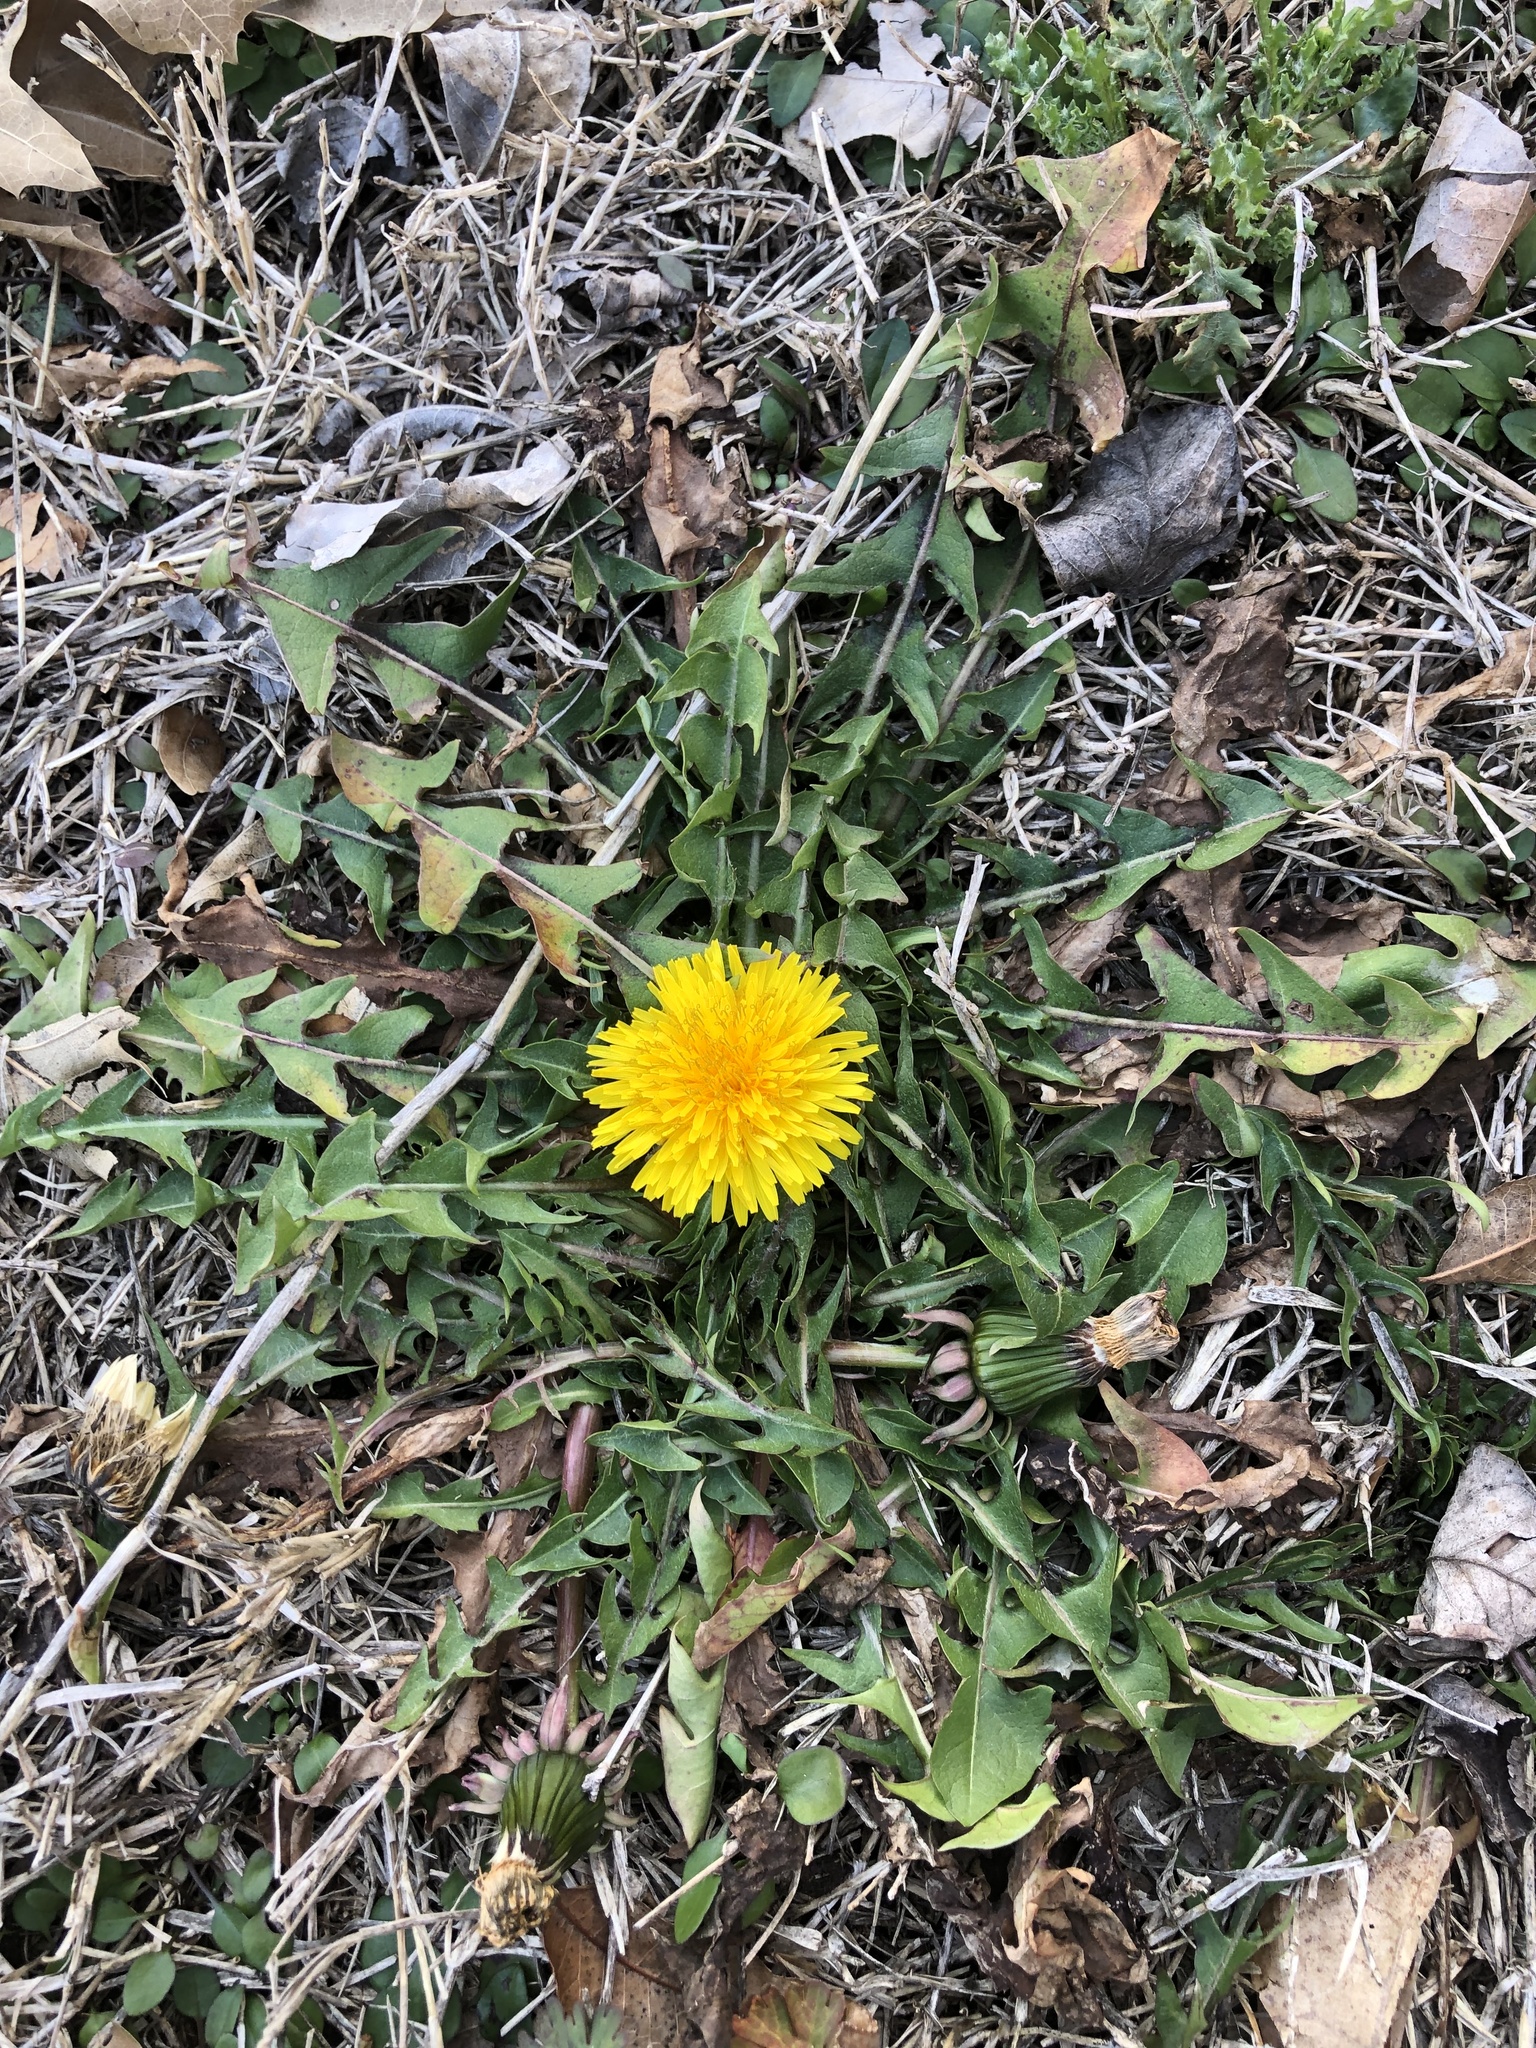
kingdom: Plantae
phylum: Tracheophyta
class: Magnoliopsida
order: Asterales
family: Asteraceae
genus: Taraxacum
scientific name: Taraxacum
